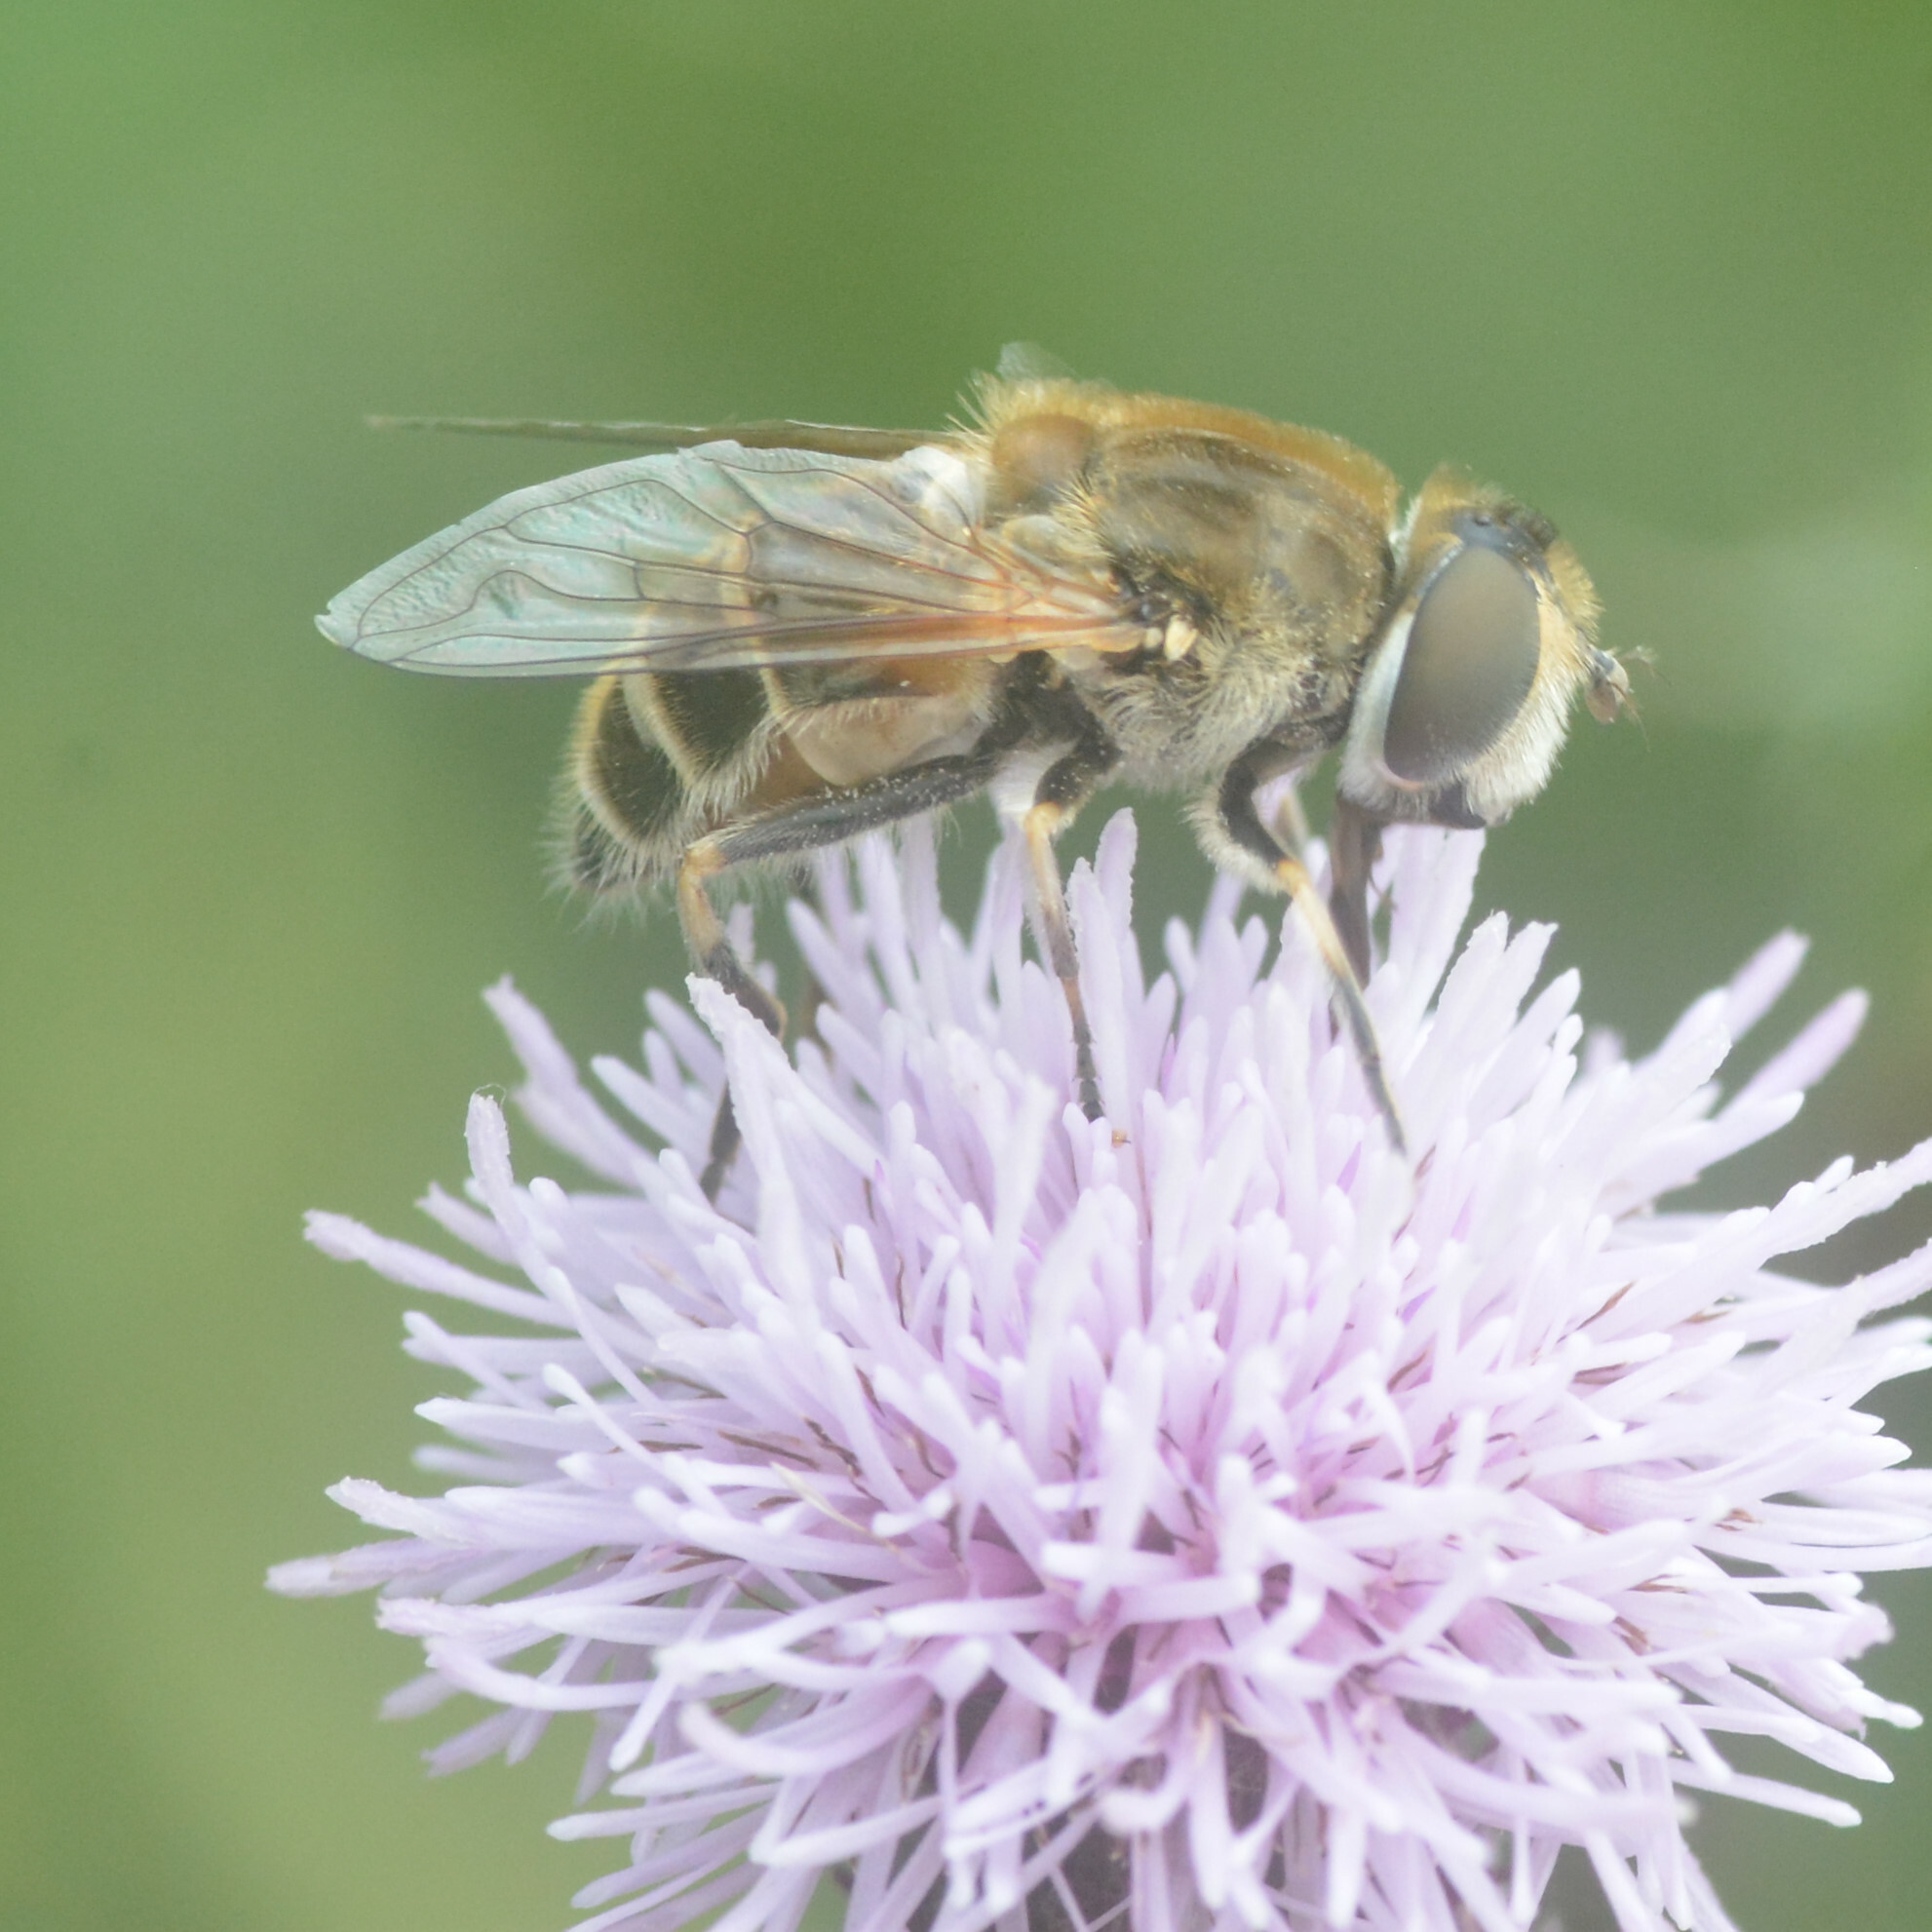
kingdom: Animalia
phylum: Arthropoda
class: Insecta
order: Diptera
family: Syrphidae
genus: Eristalis
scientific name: Eristalis arbustorum
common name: Hover fly
